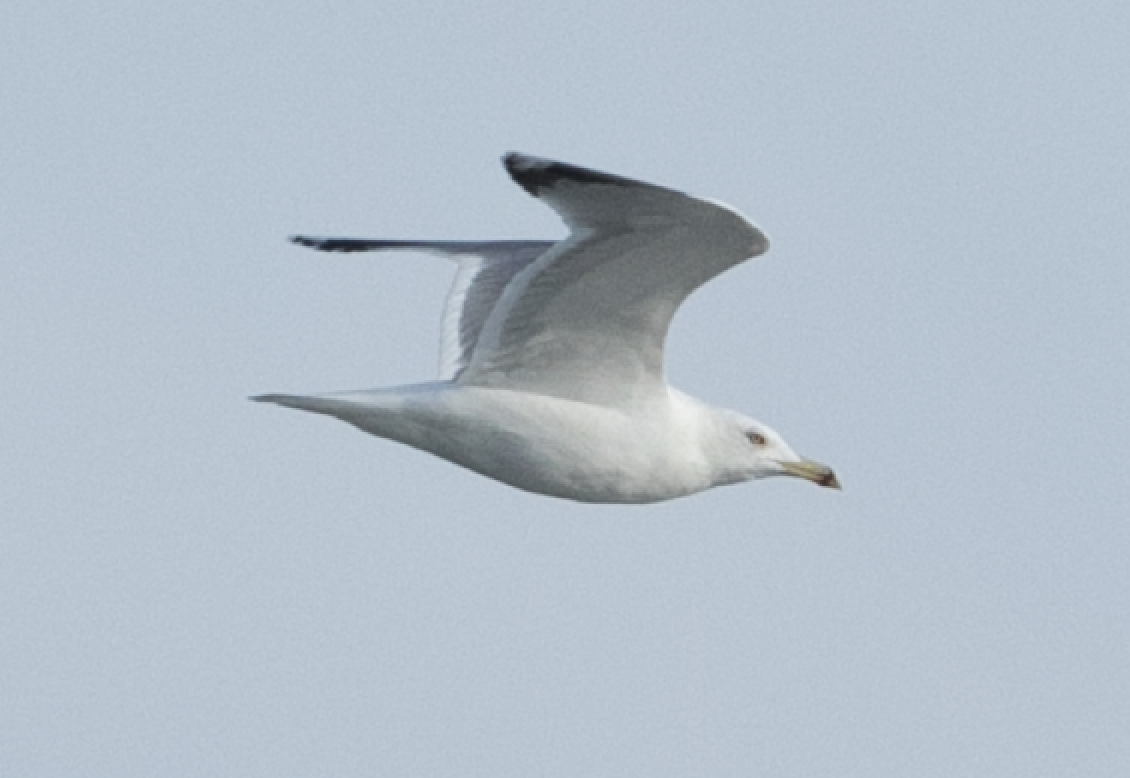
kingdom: Animalia
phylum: Chordata
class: Aves
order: Charadriiformes
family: Laridae
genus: Larus
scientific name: Larus michahellis
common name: Yellow-legged gull
